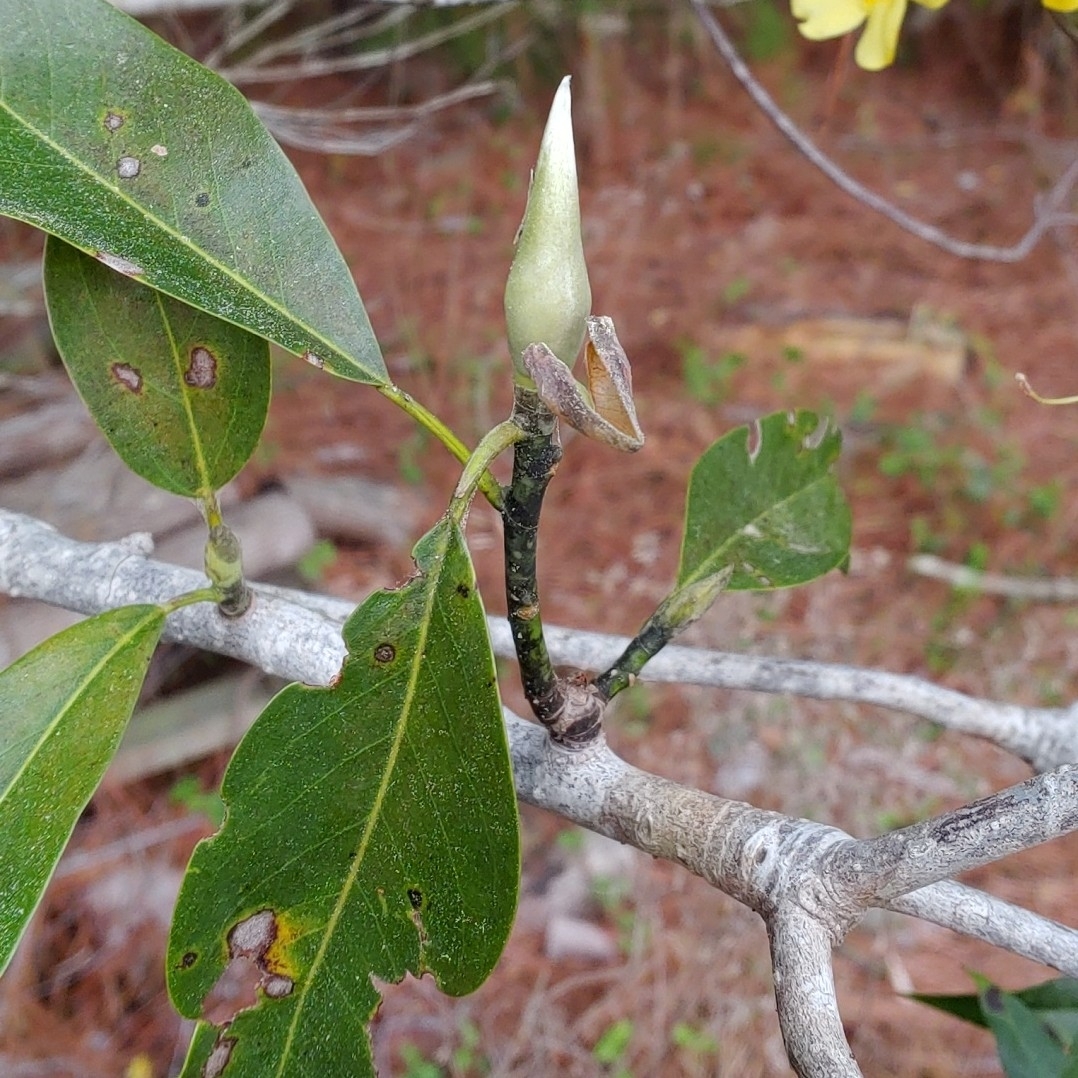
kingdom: Plantae
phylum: Tracheophyta
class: Magnoliopsida
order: Magnoliales
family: Magnoliaceae
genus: Magnolia
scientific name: Magnolia virginiana
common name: Swamp bay
